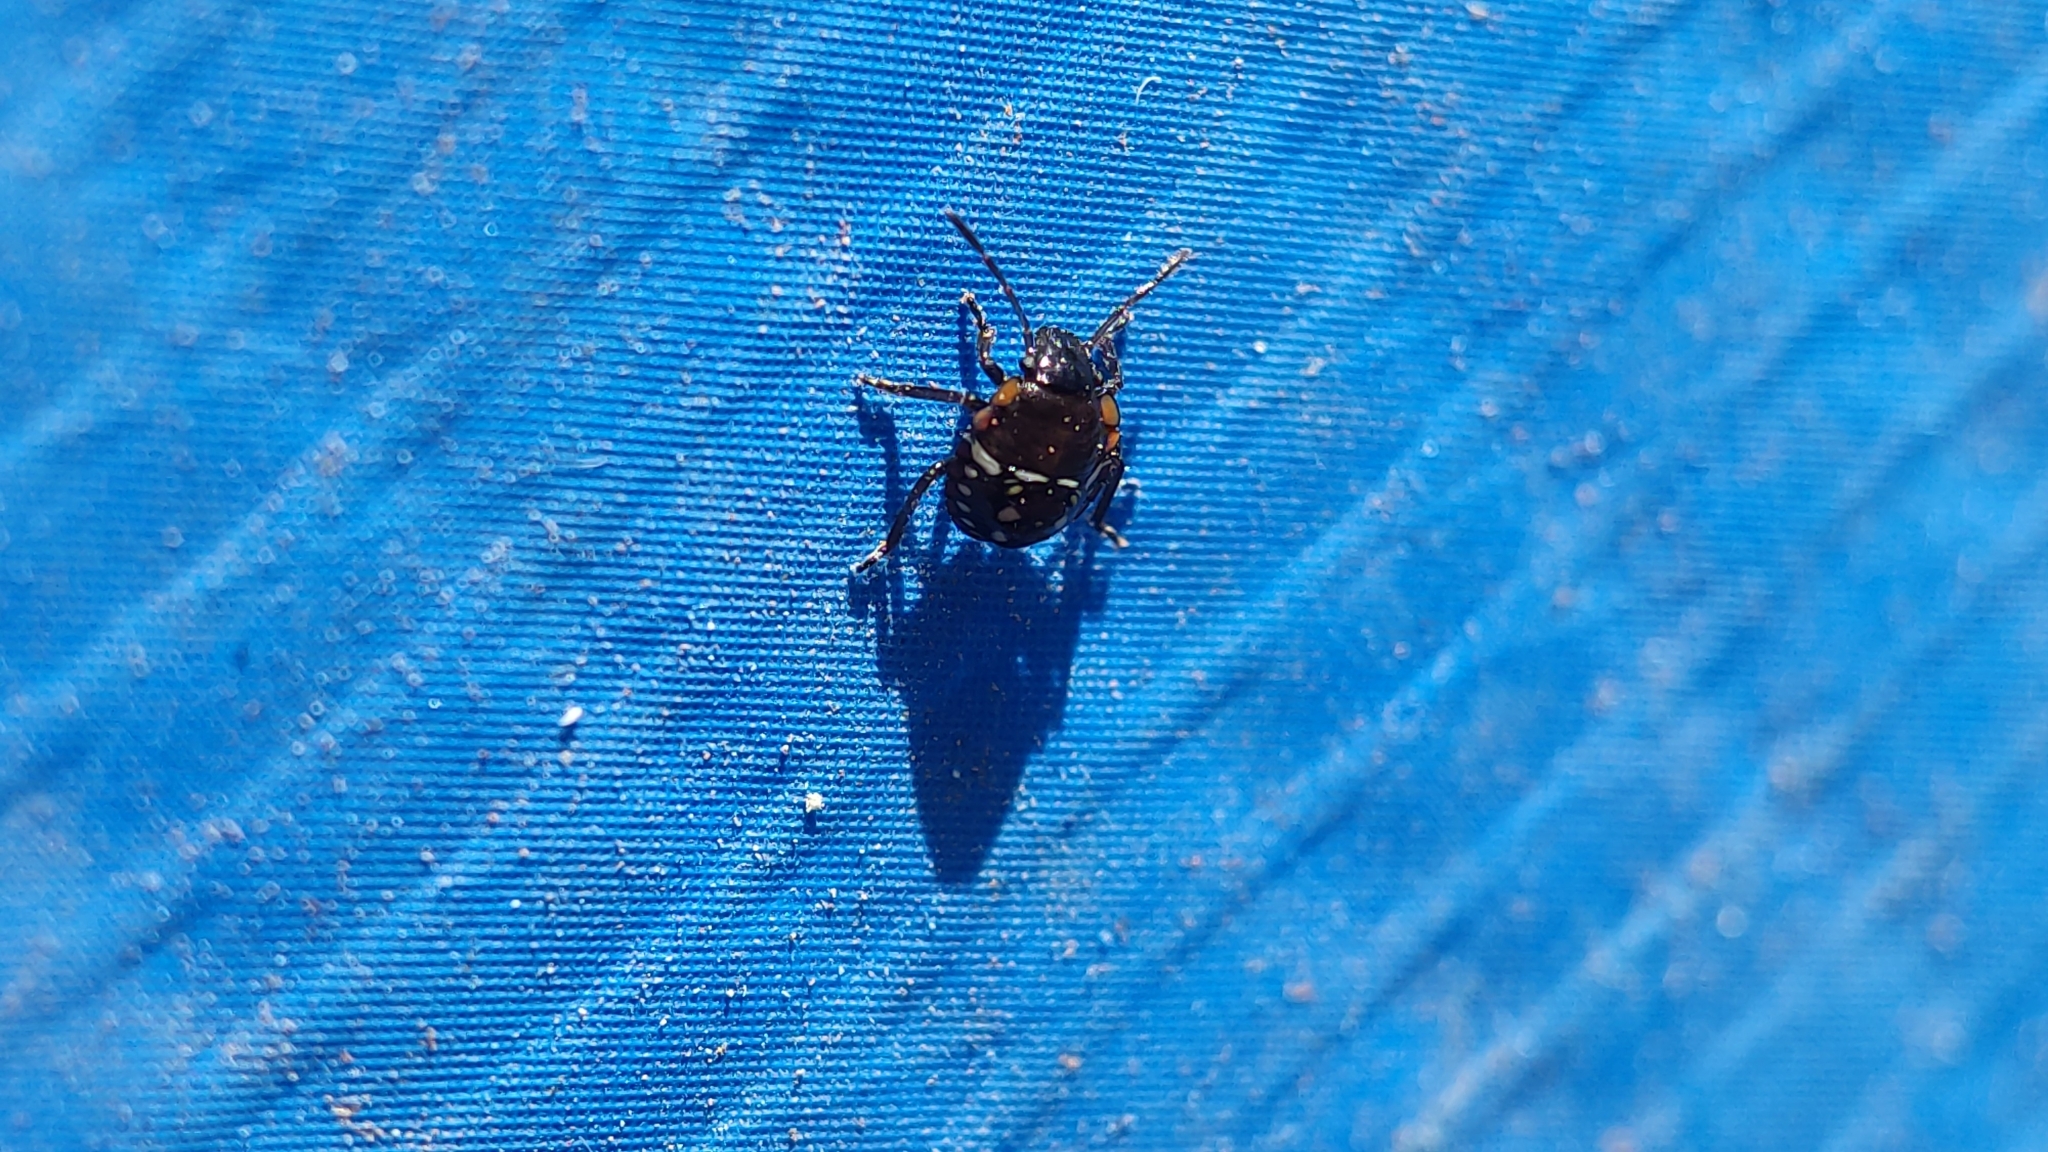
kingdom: Animalia
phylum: Arthropoda
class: Insecta
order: Hemiptera
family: Pentatomidae
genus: Nezara
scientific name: Nezara viridula
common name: Southern green stink bug
